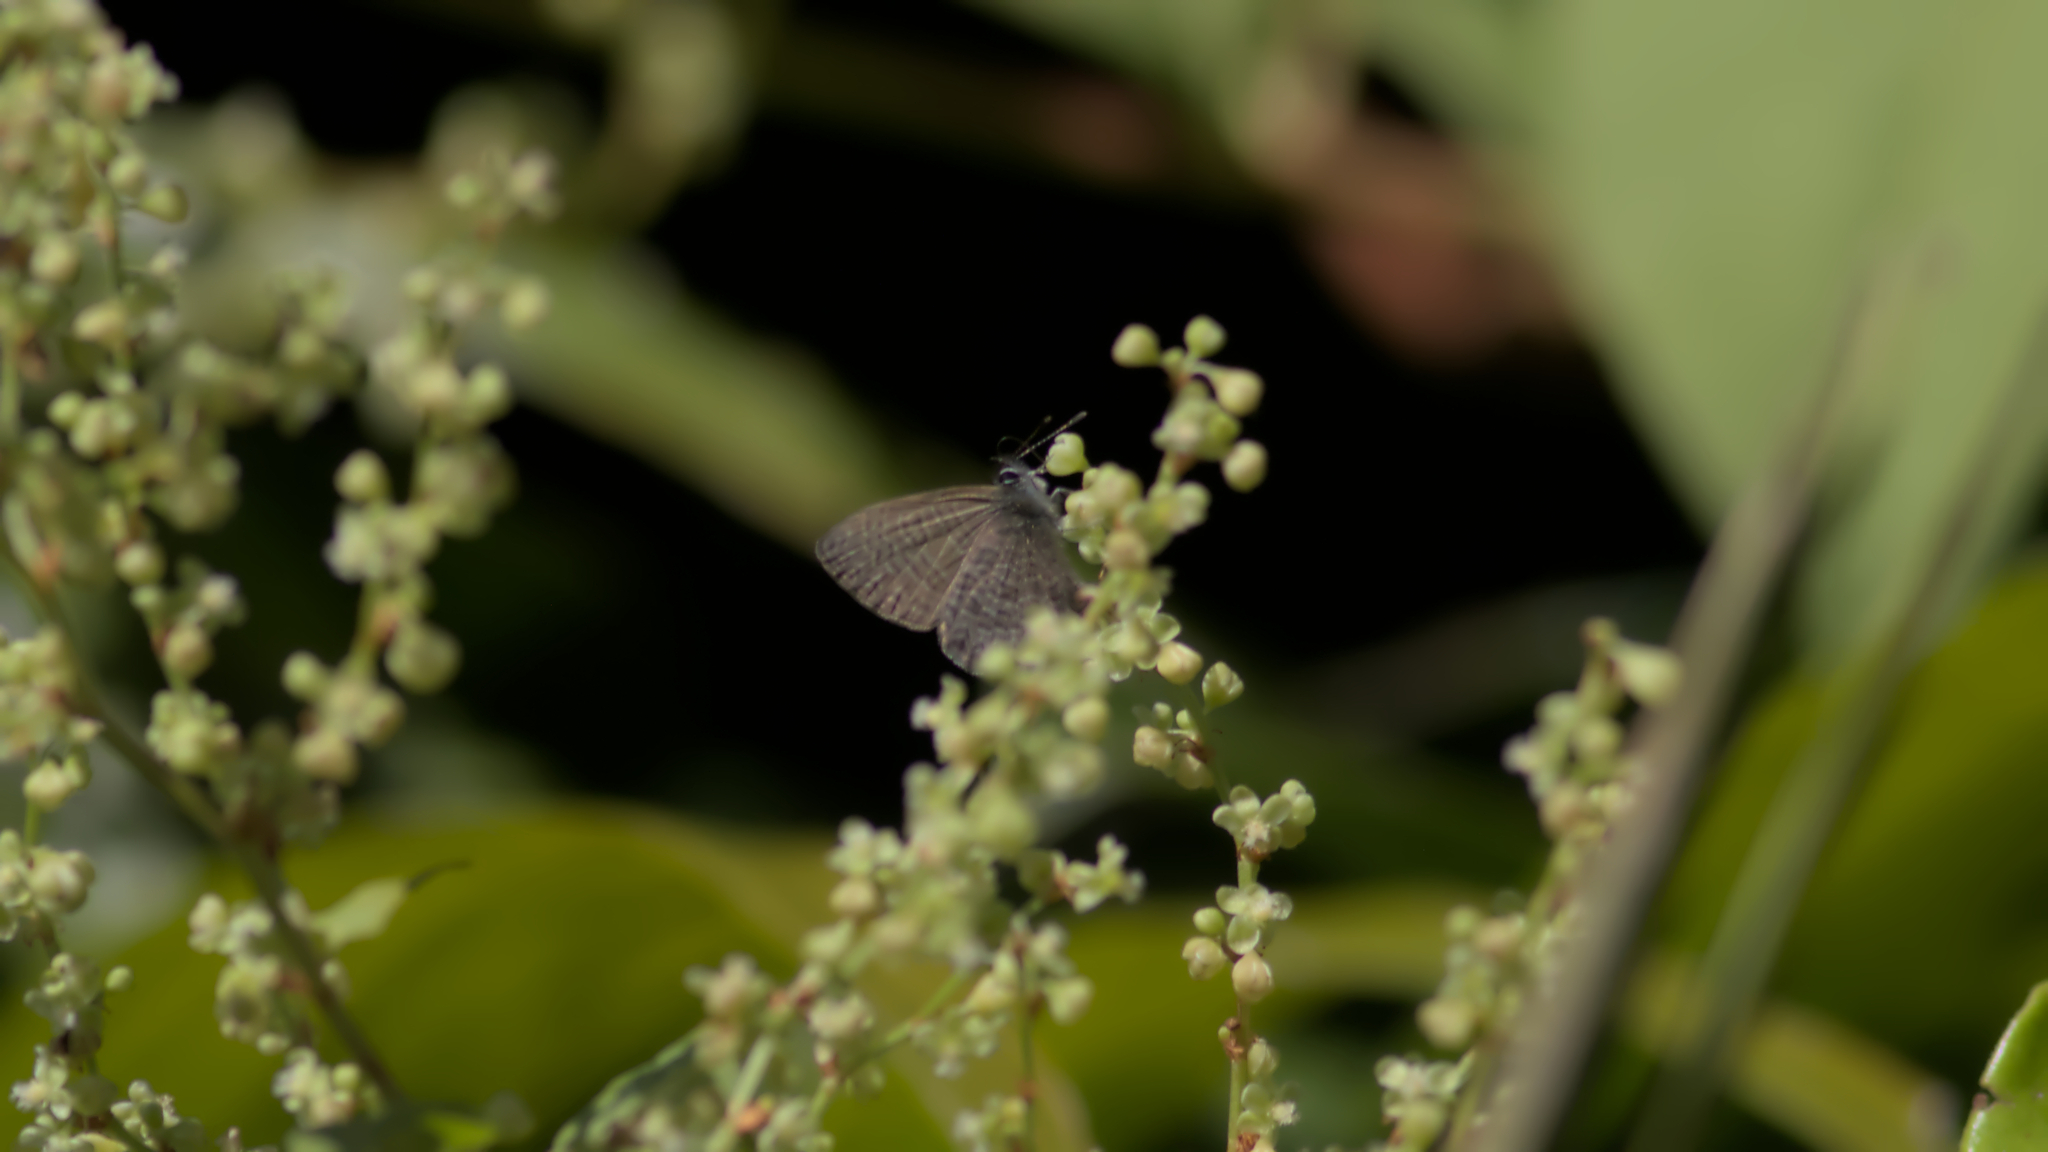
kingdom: Animalia
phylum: Arthropoda
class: Insecta
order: Lepidoptera
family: Lycaenidae
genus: Prosotas
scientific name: Prosotas dubiosa
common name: Tailless lineblue
